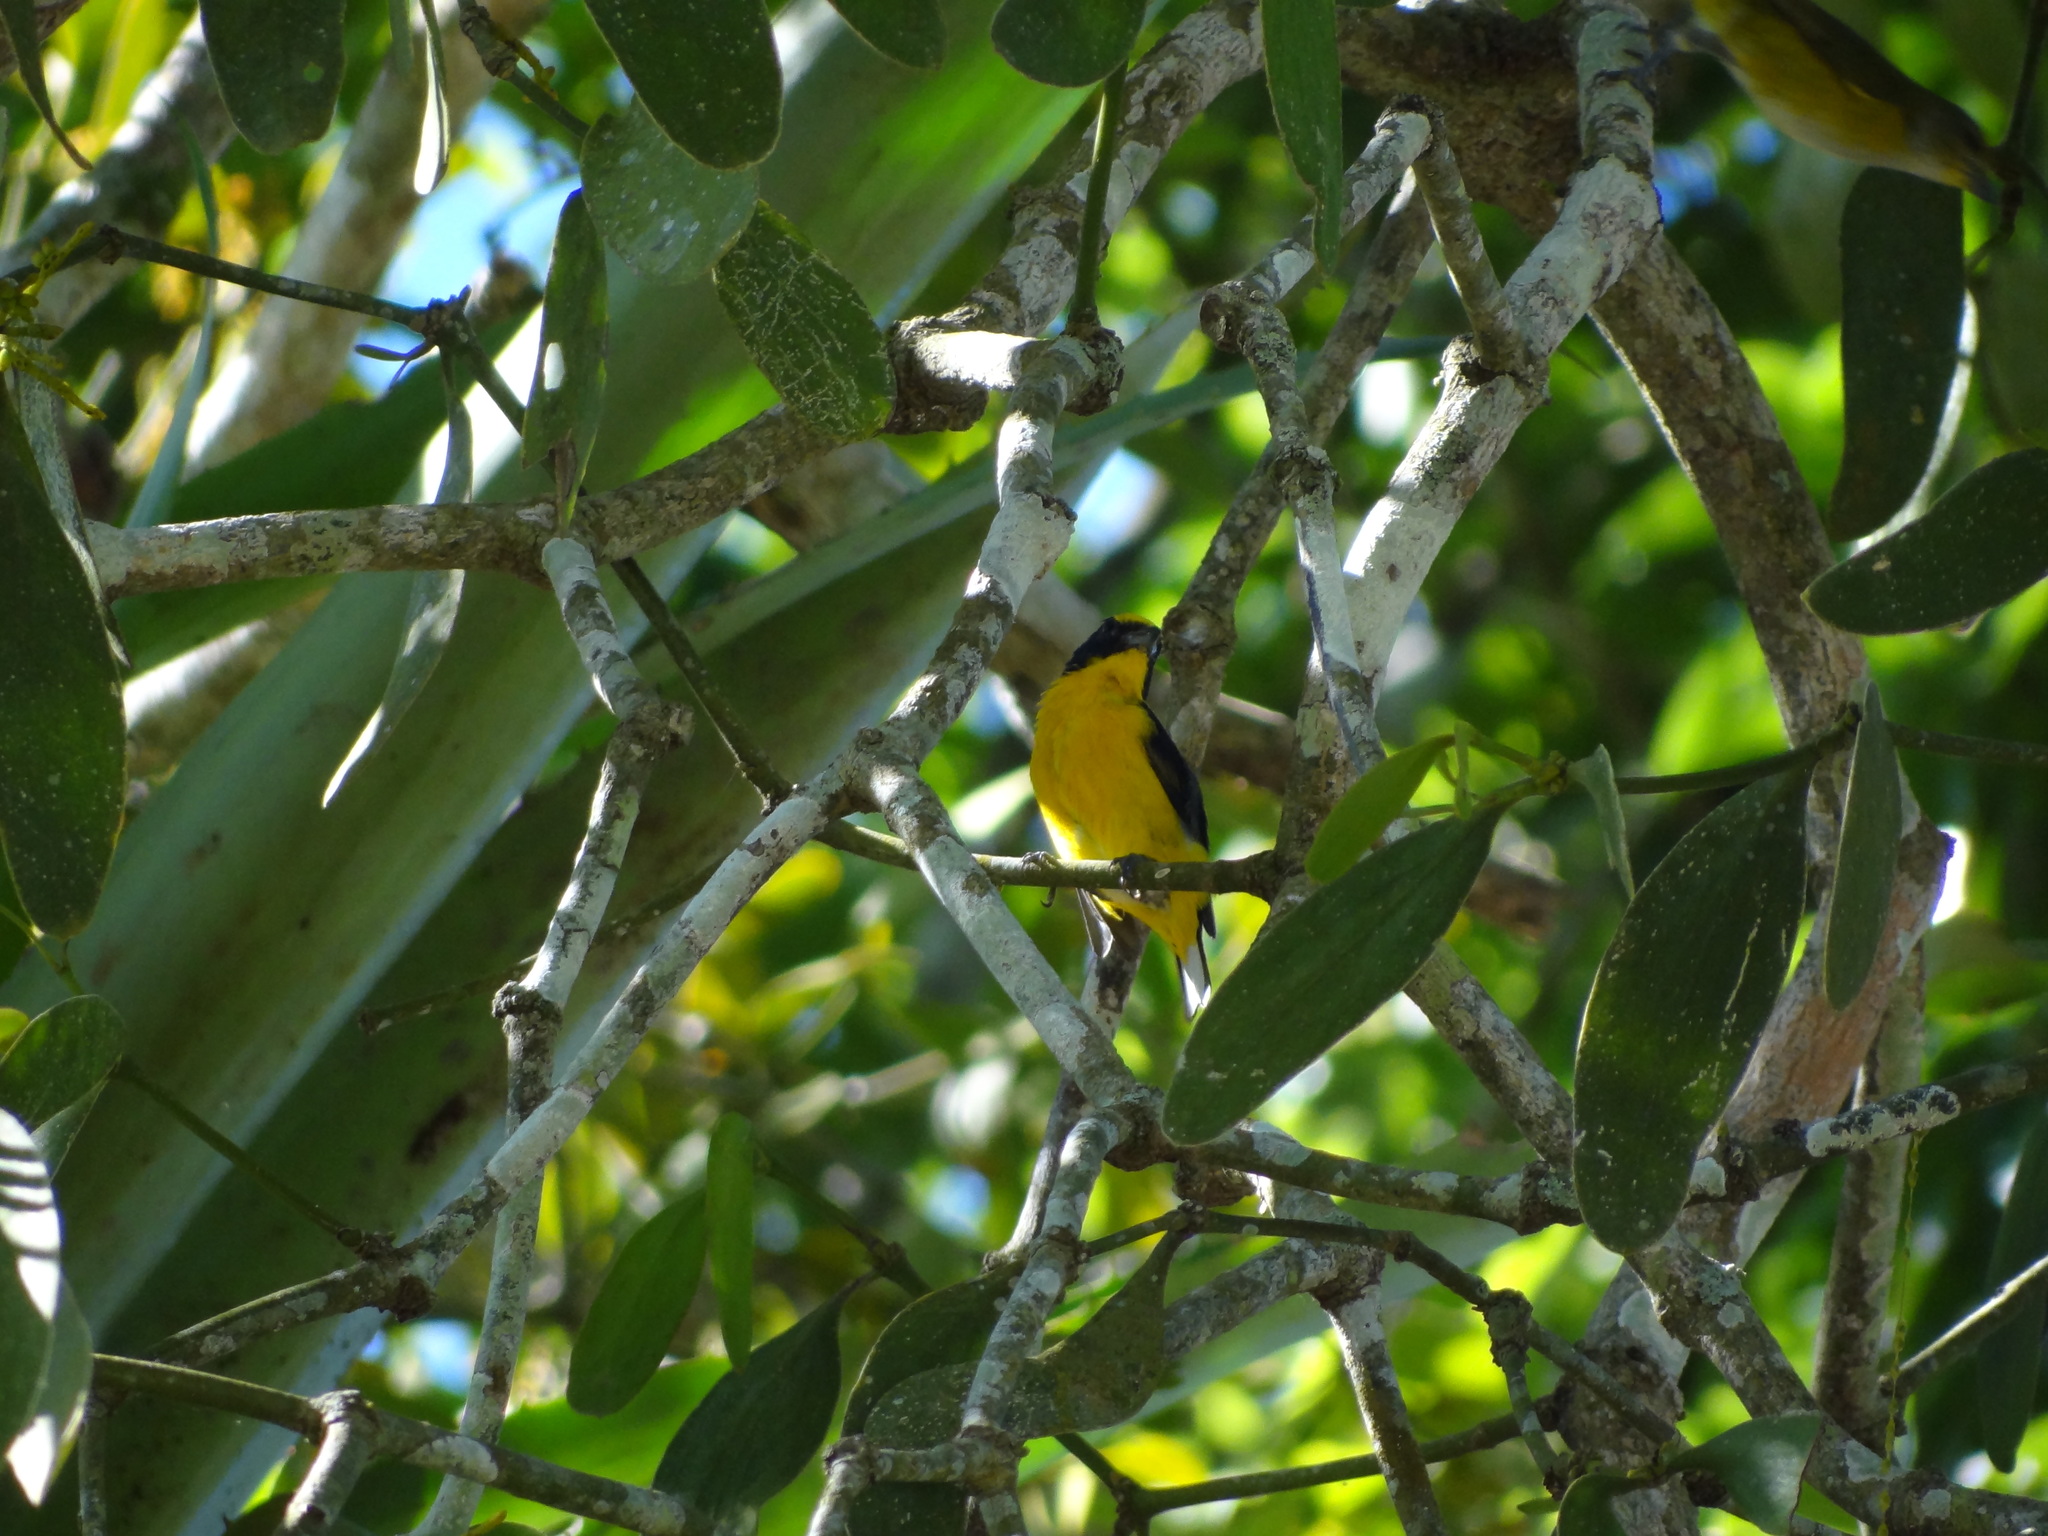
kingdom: Animalia
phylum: Chordata
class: Aves
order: Passeriformes
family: Fringillidae
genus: Euphonia
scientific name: Euphonia hirundinacea
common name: Yellow-throated euphonia
